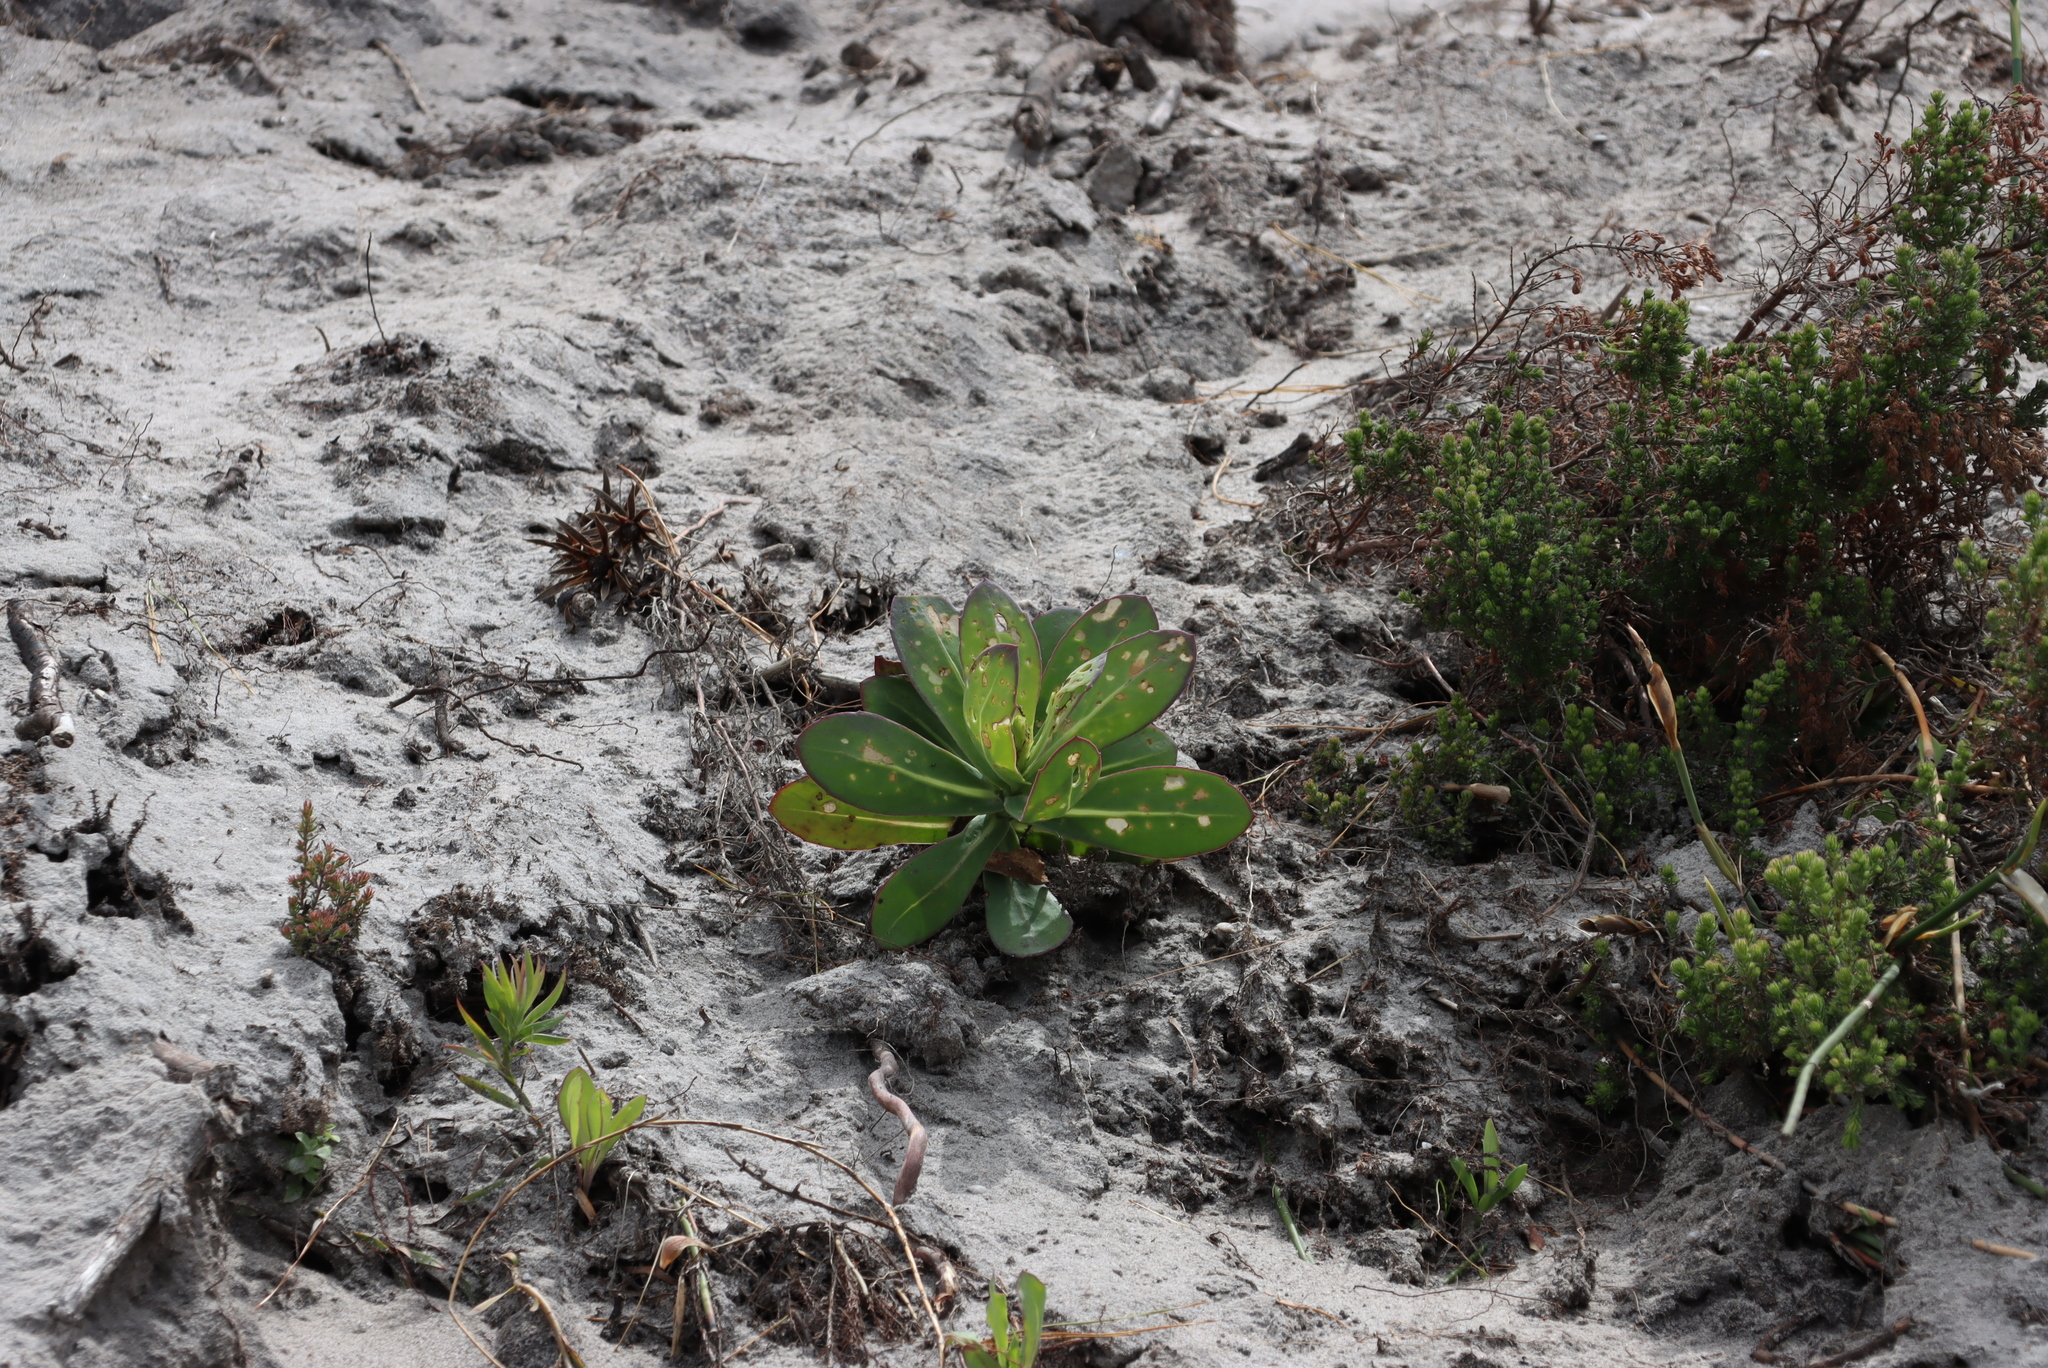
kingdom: Plantae
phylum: Tracheophyta
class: Magnoliopsida
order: Asterales
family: Asteraceae
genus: Othonna
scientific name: Othonna quinquedentata
